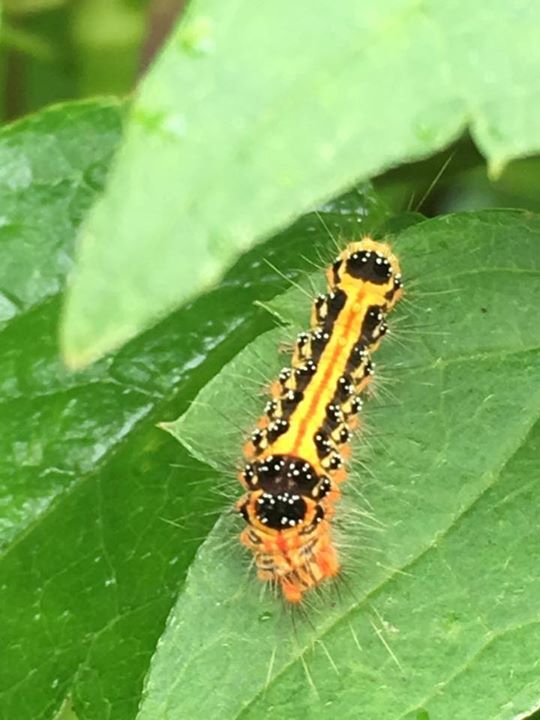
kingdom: Animalia
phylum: Arthropoda
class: Insecta
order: Lepidoptera
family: Erebidae
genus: Euproctis
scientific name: Euproctis taiwana
